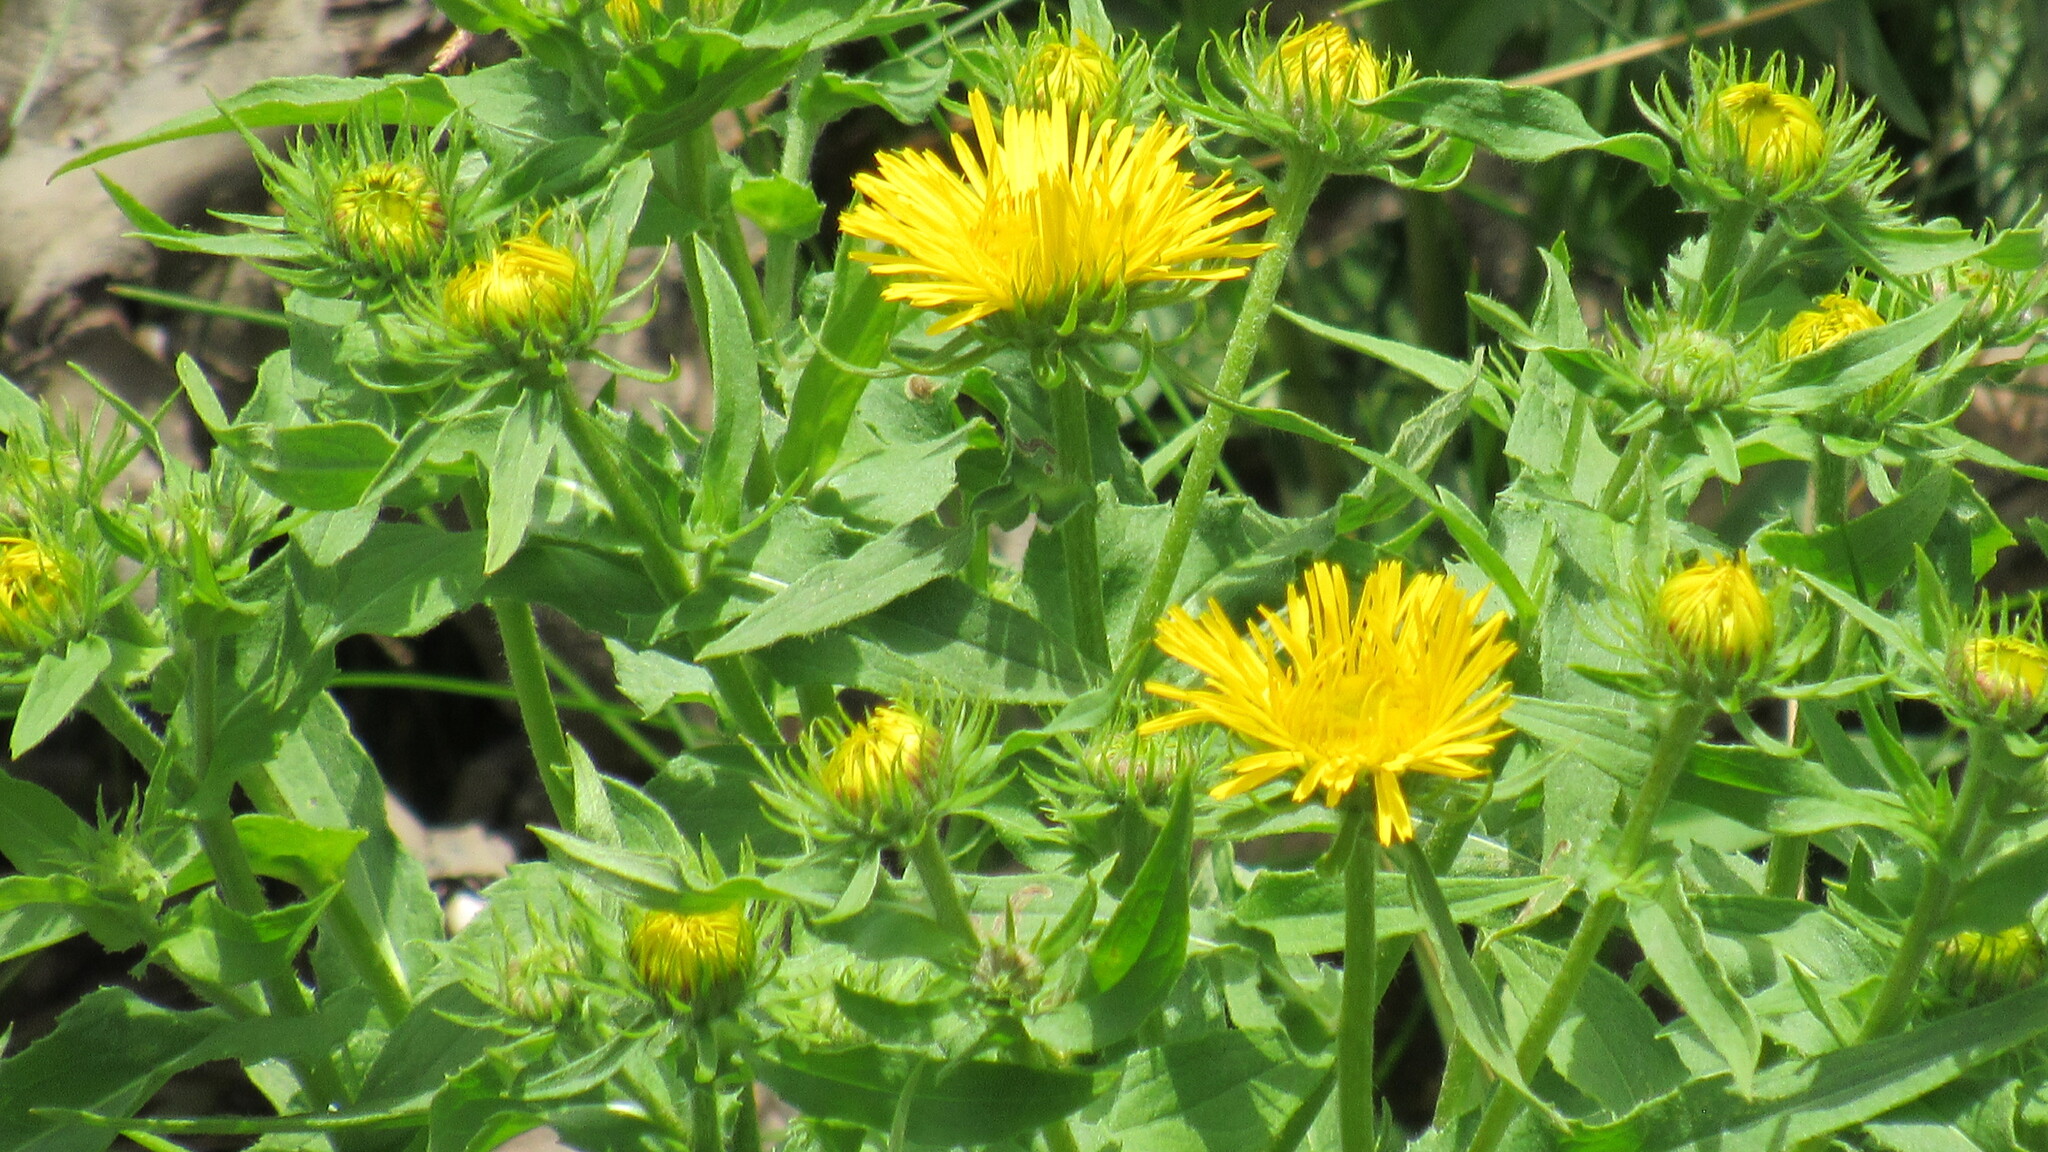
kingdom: Plantae
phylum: Tracheophyta
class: Magnoliopsida
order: Asterales
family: Asteraceae
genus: Pentanema
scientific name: Pentanema britannicum
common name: British elecampane
